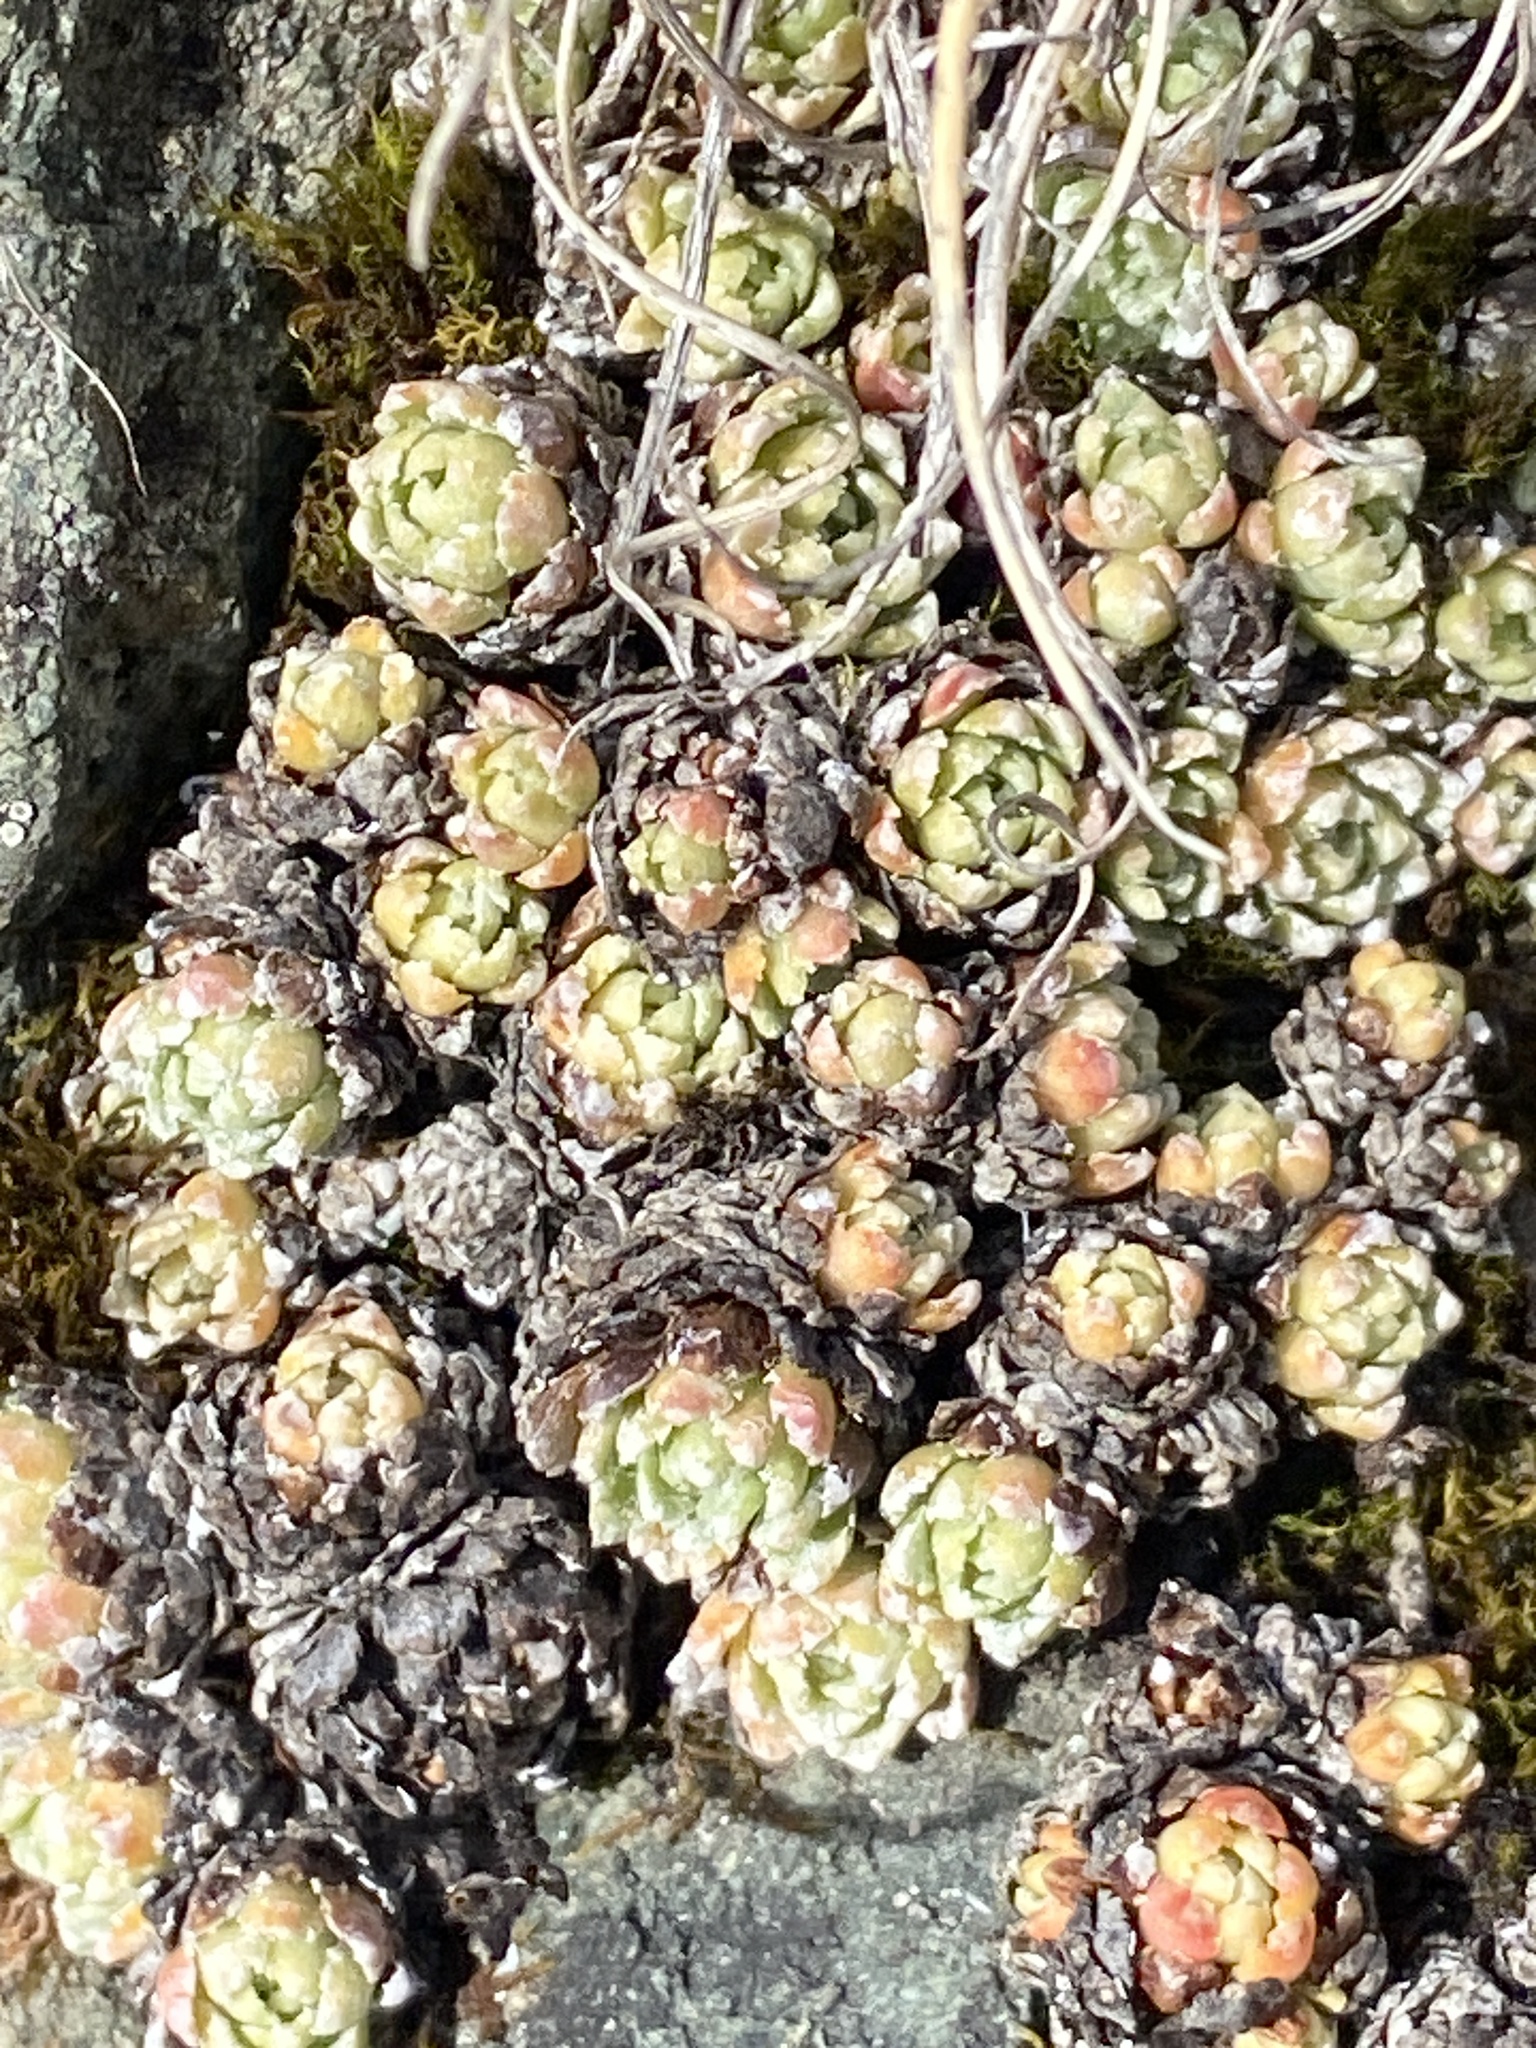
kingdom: Plantae
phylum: Tracheophyta
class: Magnoliopsida
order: Saxifragales
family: Saxifragaceae
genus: Saxifraga
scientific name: Saxifraga paniculata
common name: Livelong saxifrage
